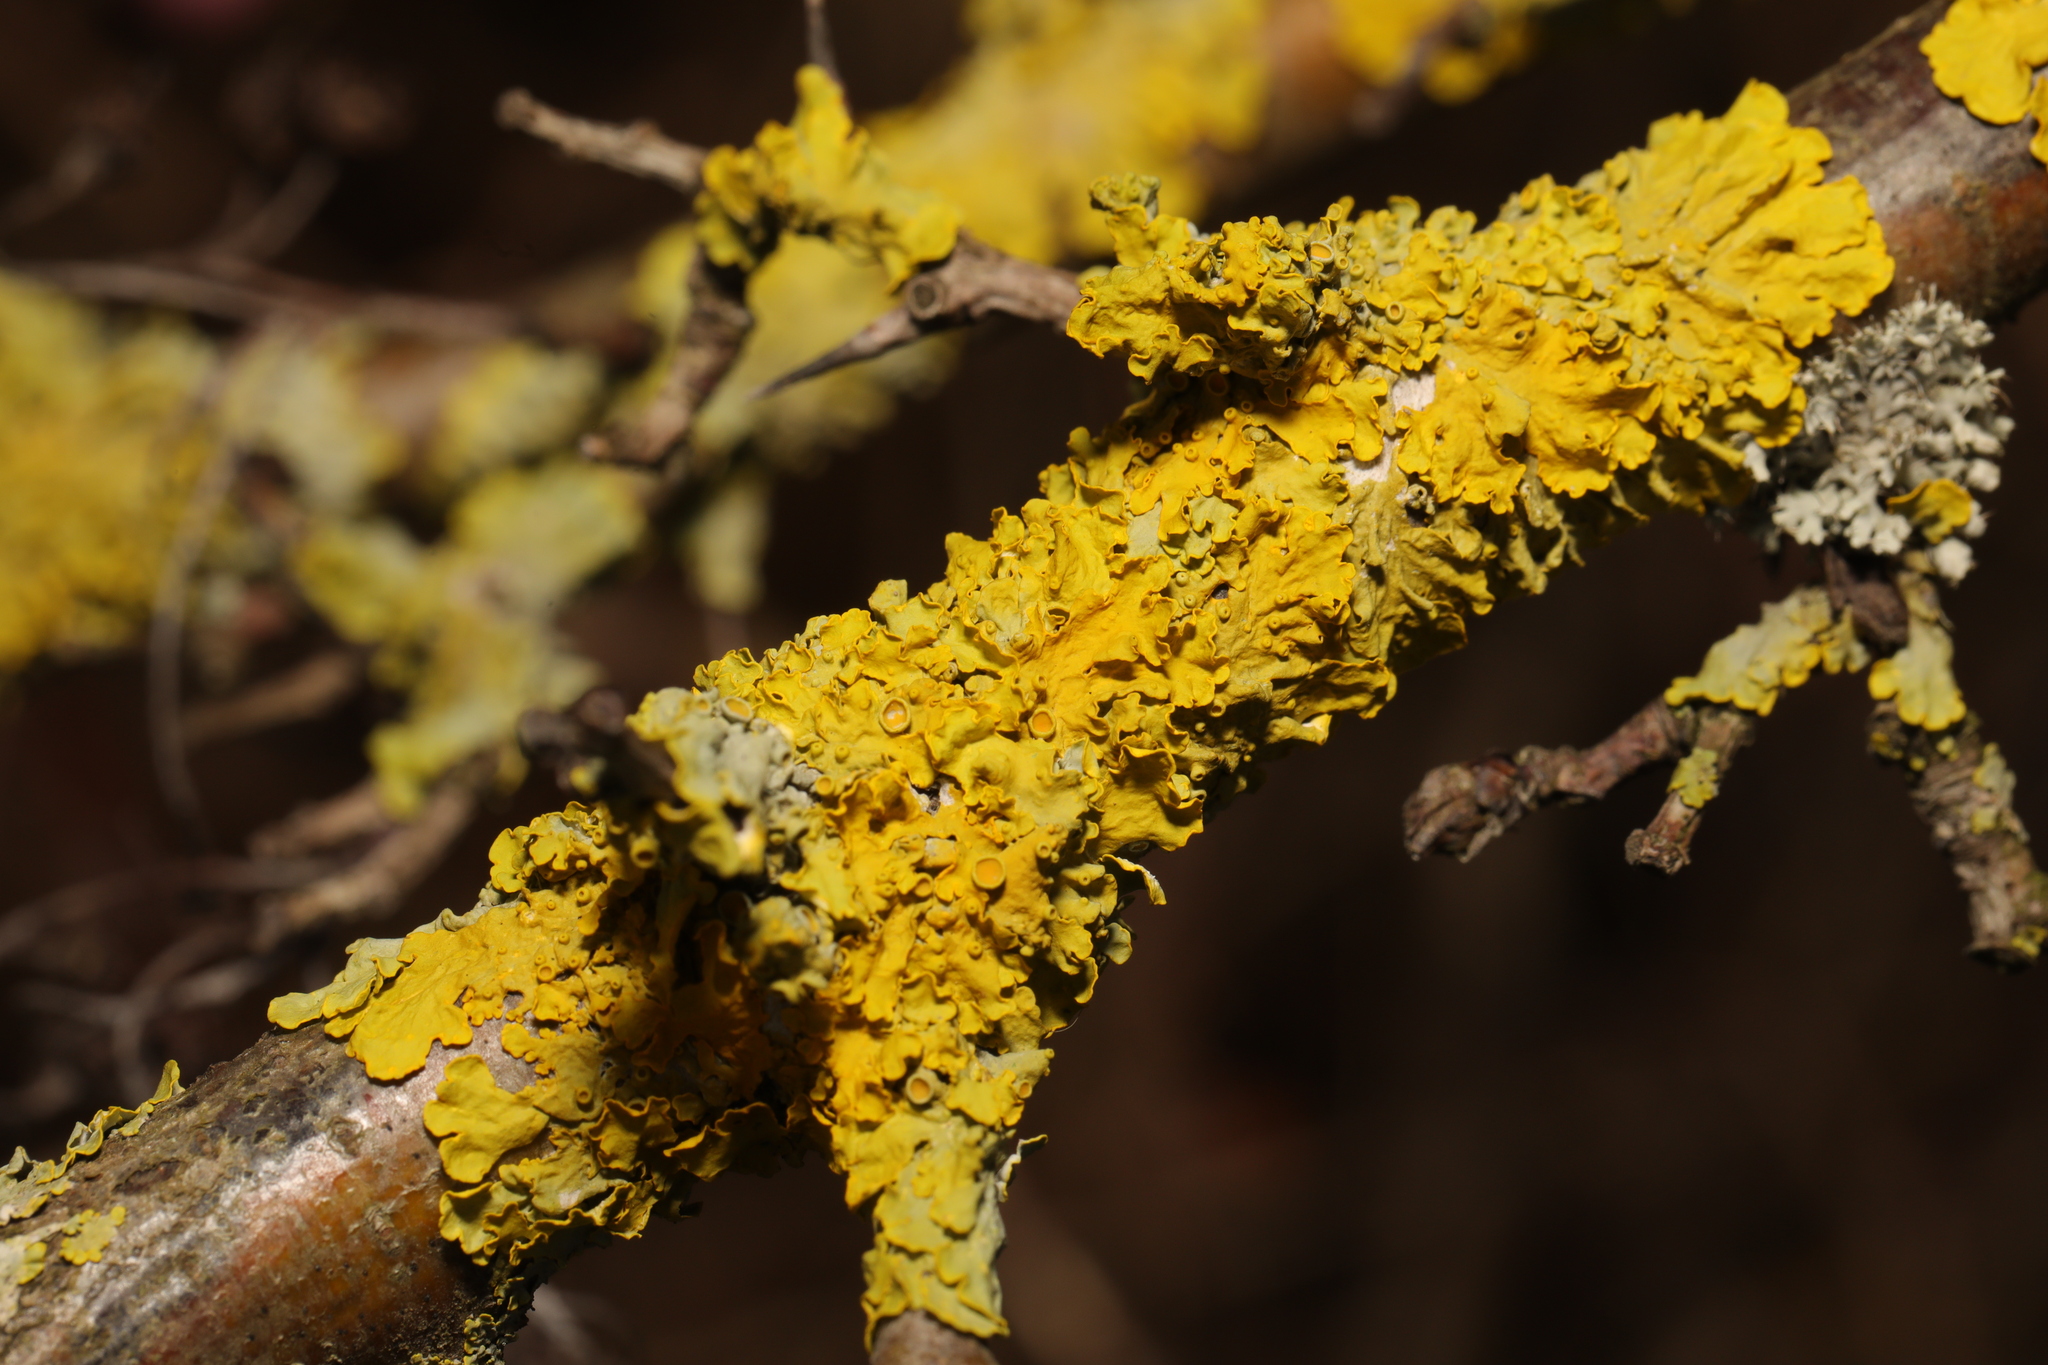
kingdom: Fungi
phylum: Ascomycota
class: Lecanoromycetes
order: Teloschistales
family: Teloschistaceae
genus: Xanthoria
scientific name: Xanthoria parietina
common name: Common orange lichen
